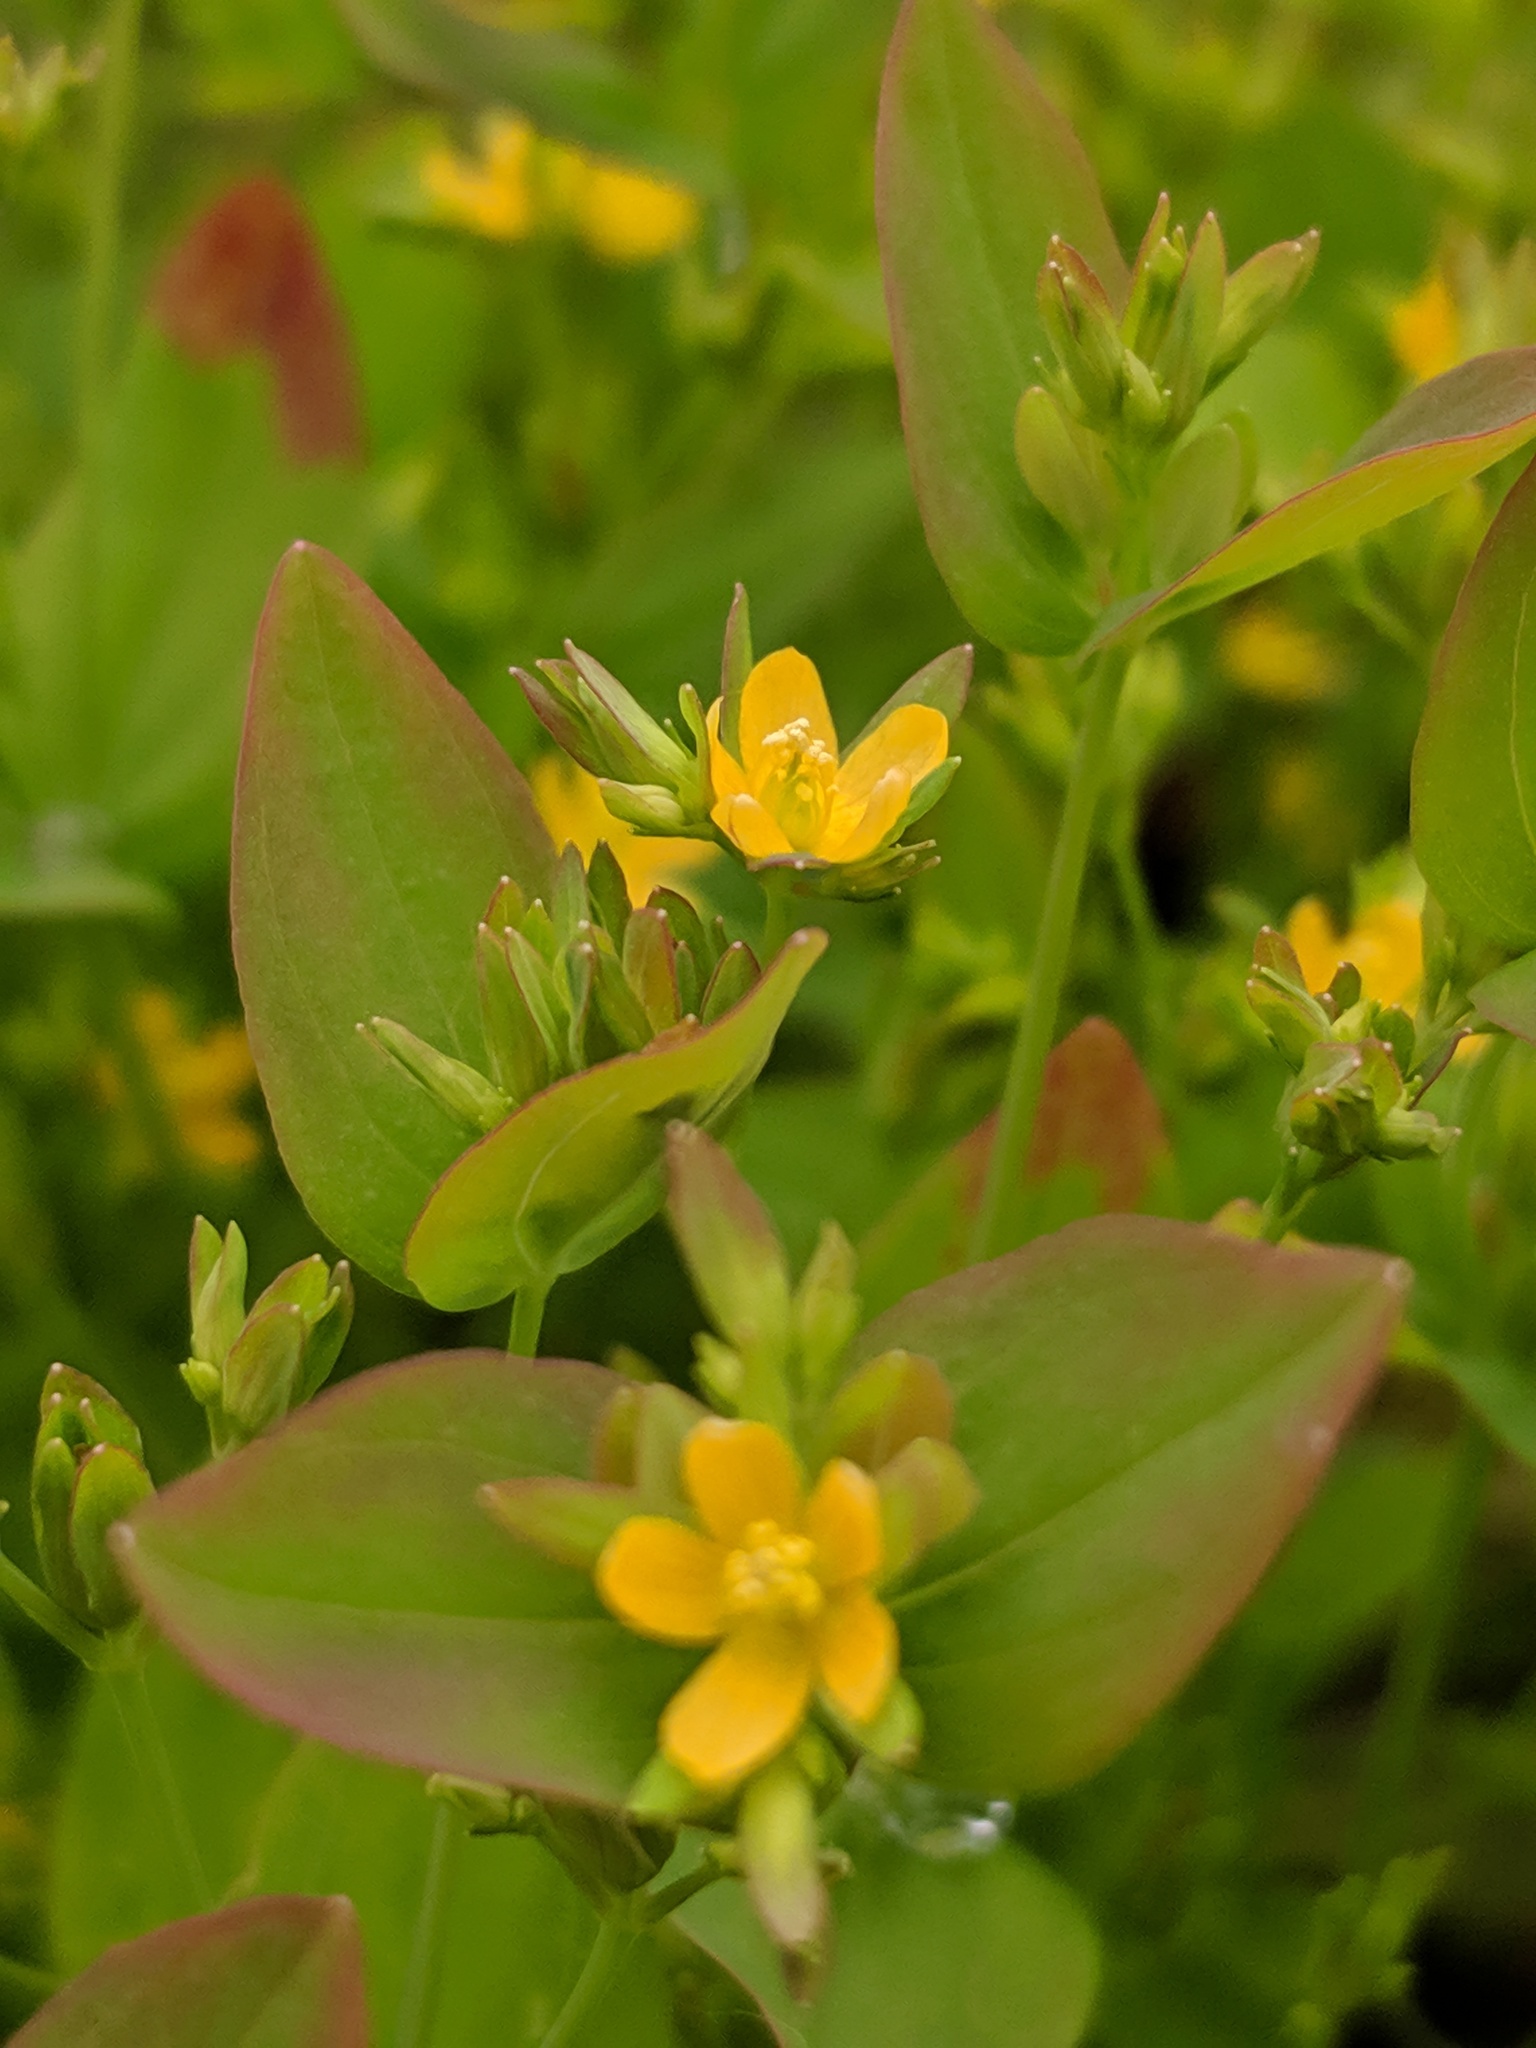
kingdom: Plantae
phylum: Tracheophyta
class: Magnoliopsida
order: Malpighiales
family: Hypericaceae
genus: Hypericum
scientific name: Hypericum mutilum
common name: Dwarf st. john's-wort
